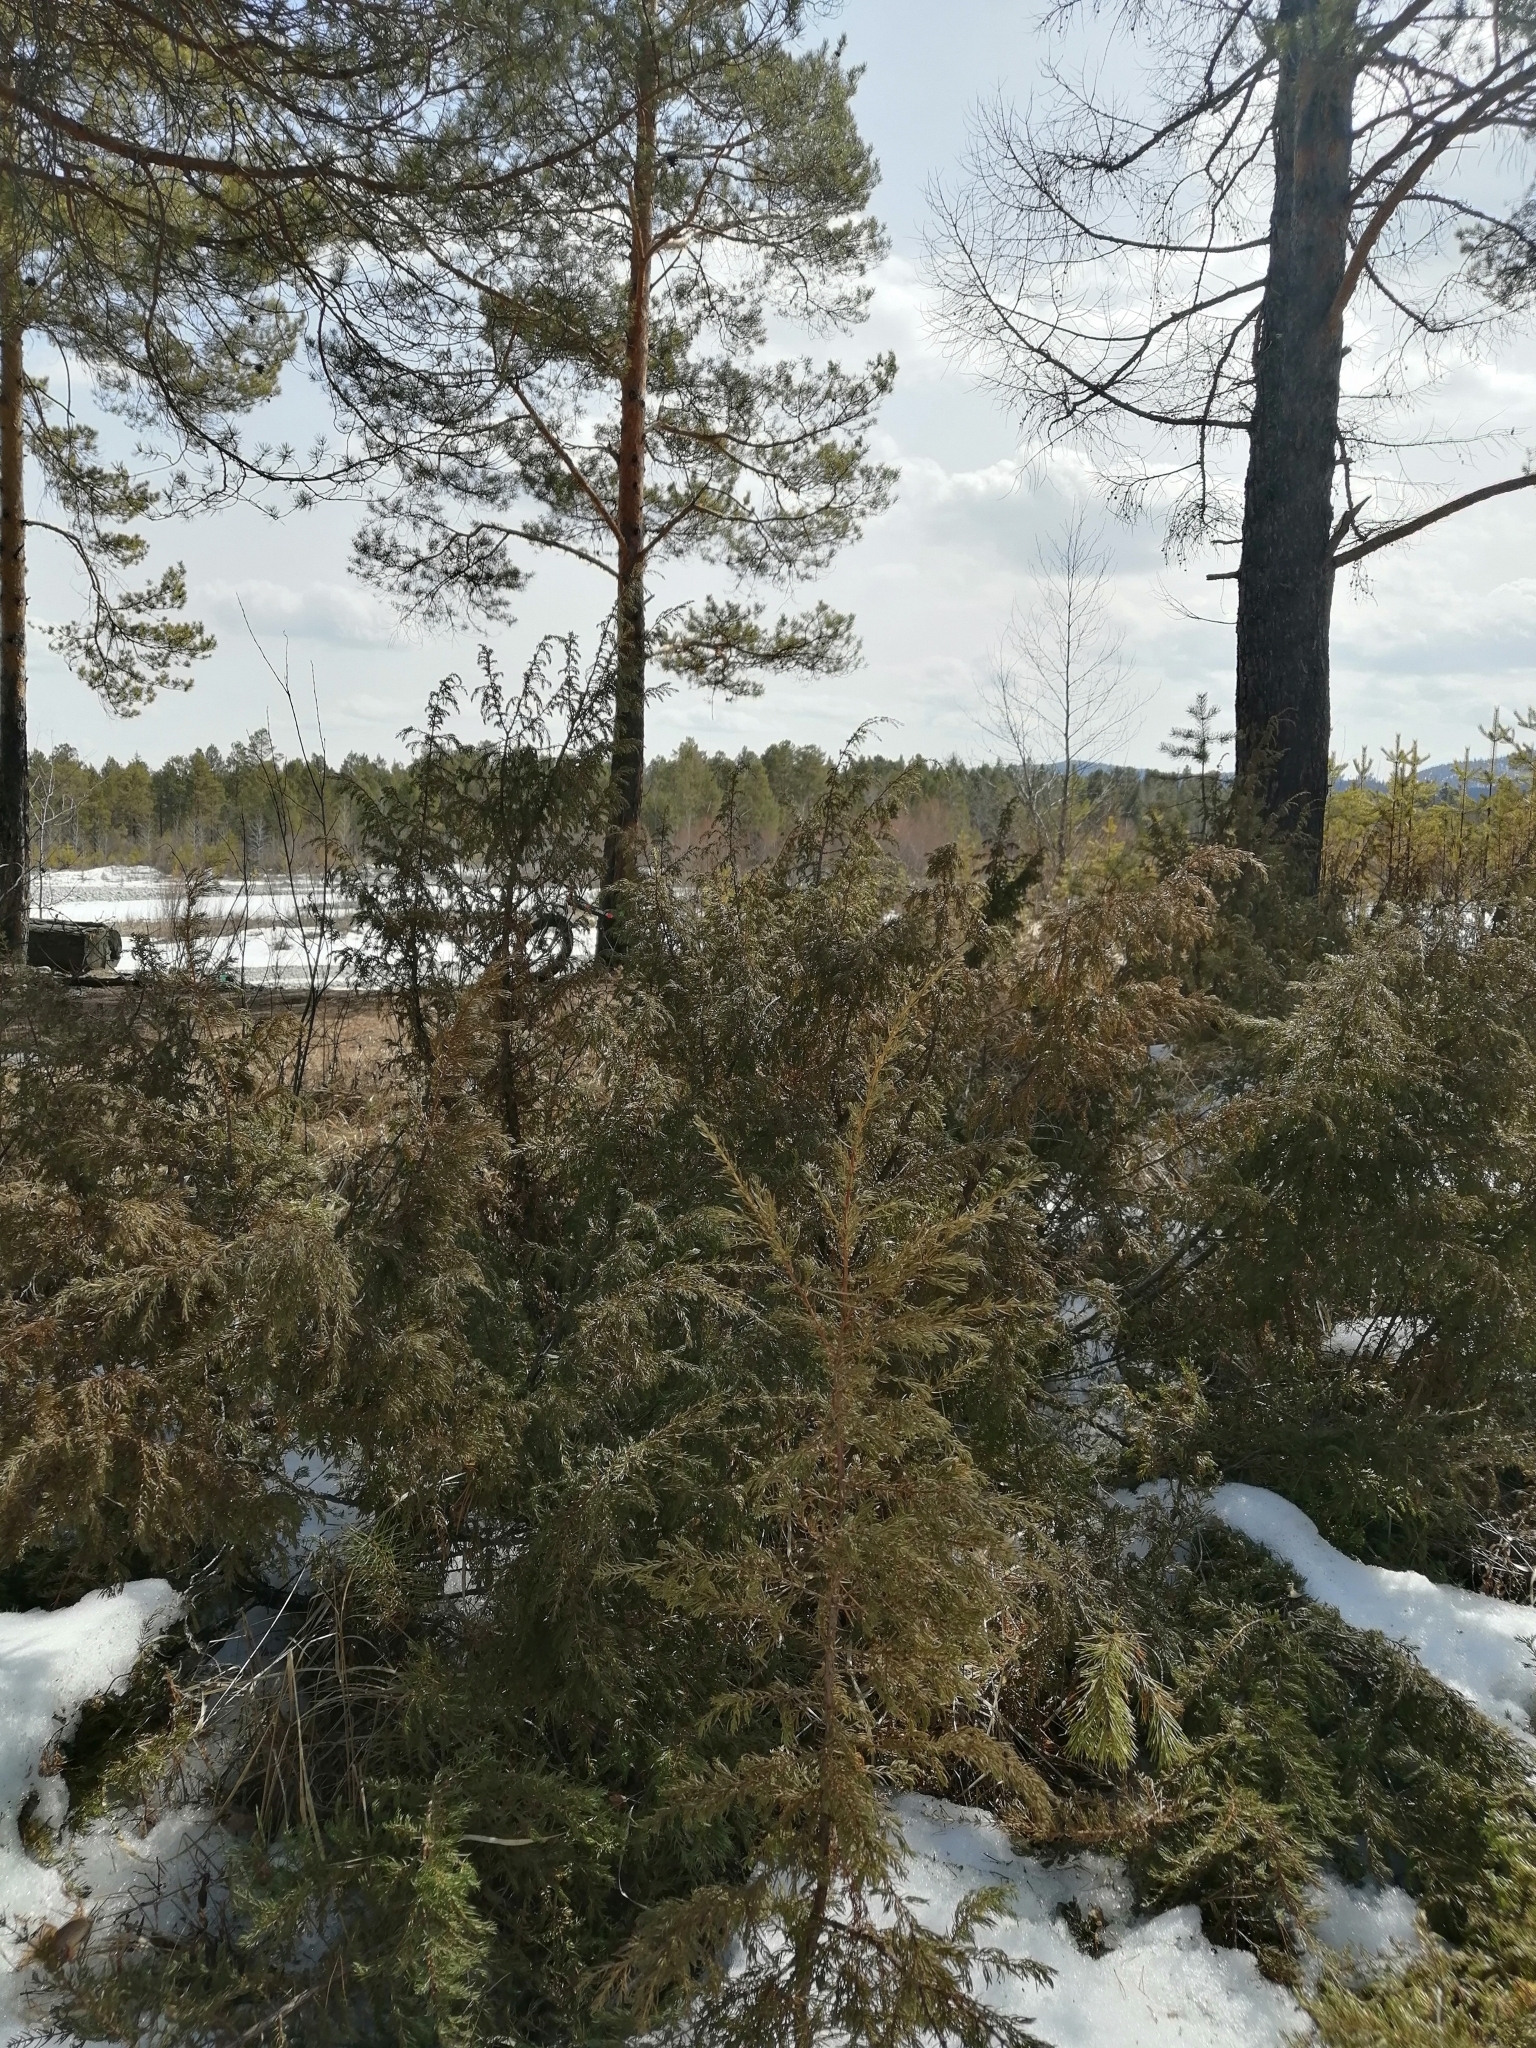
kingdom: Plantae
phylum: Tracheophyta
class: Pinopsida
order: Pinales
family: Cupressaceae
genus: Juniperus
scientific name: Juniperus communis
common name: Common juniper
